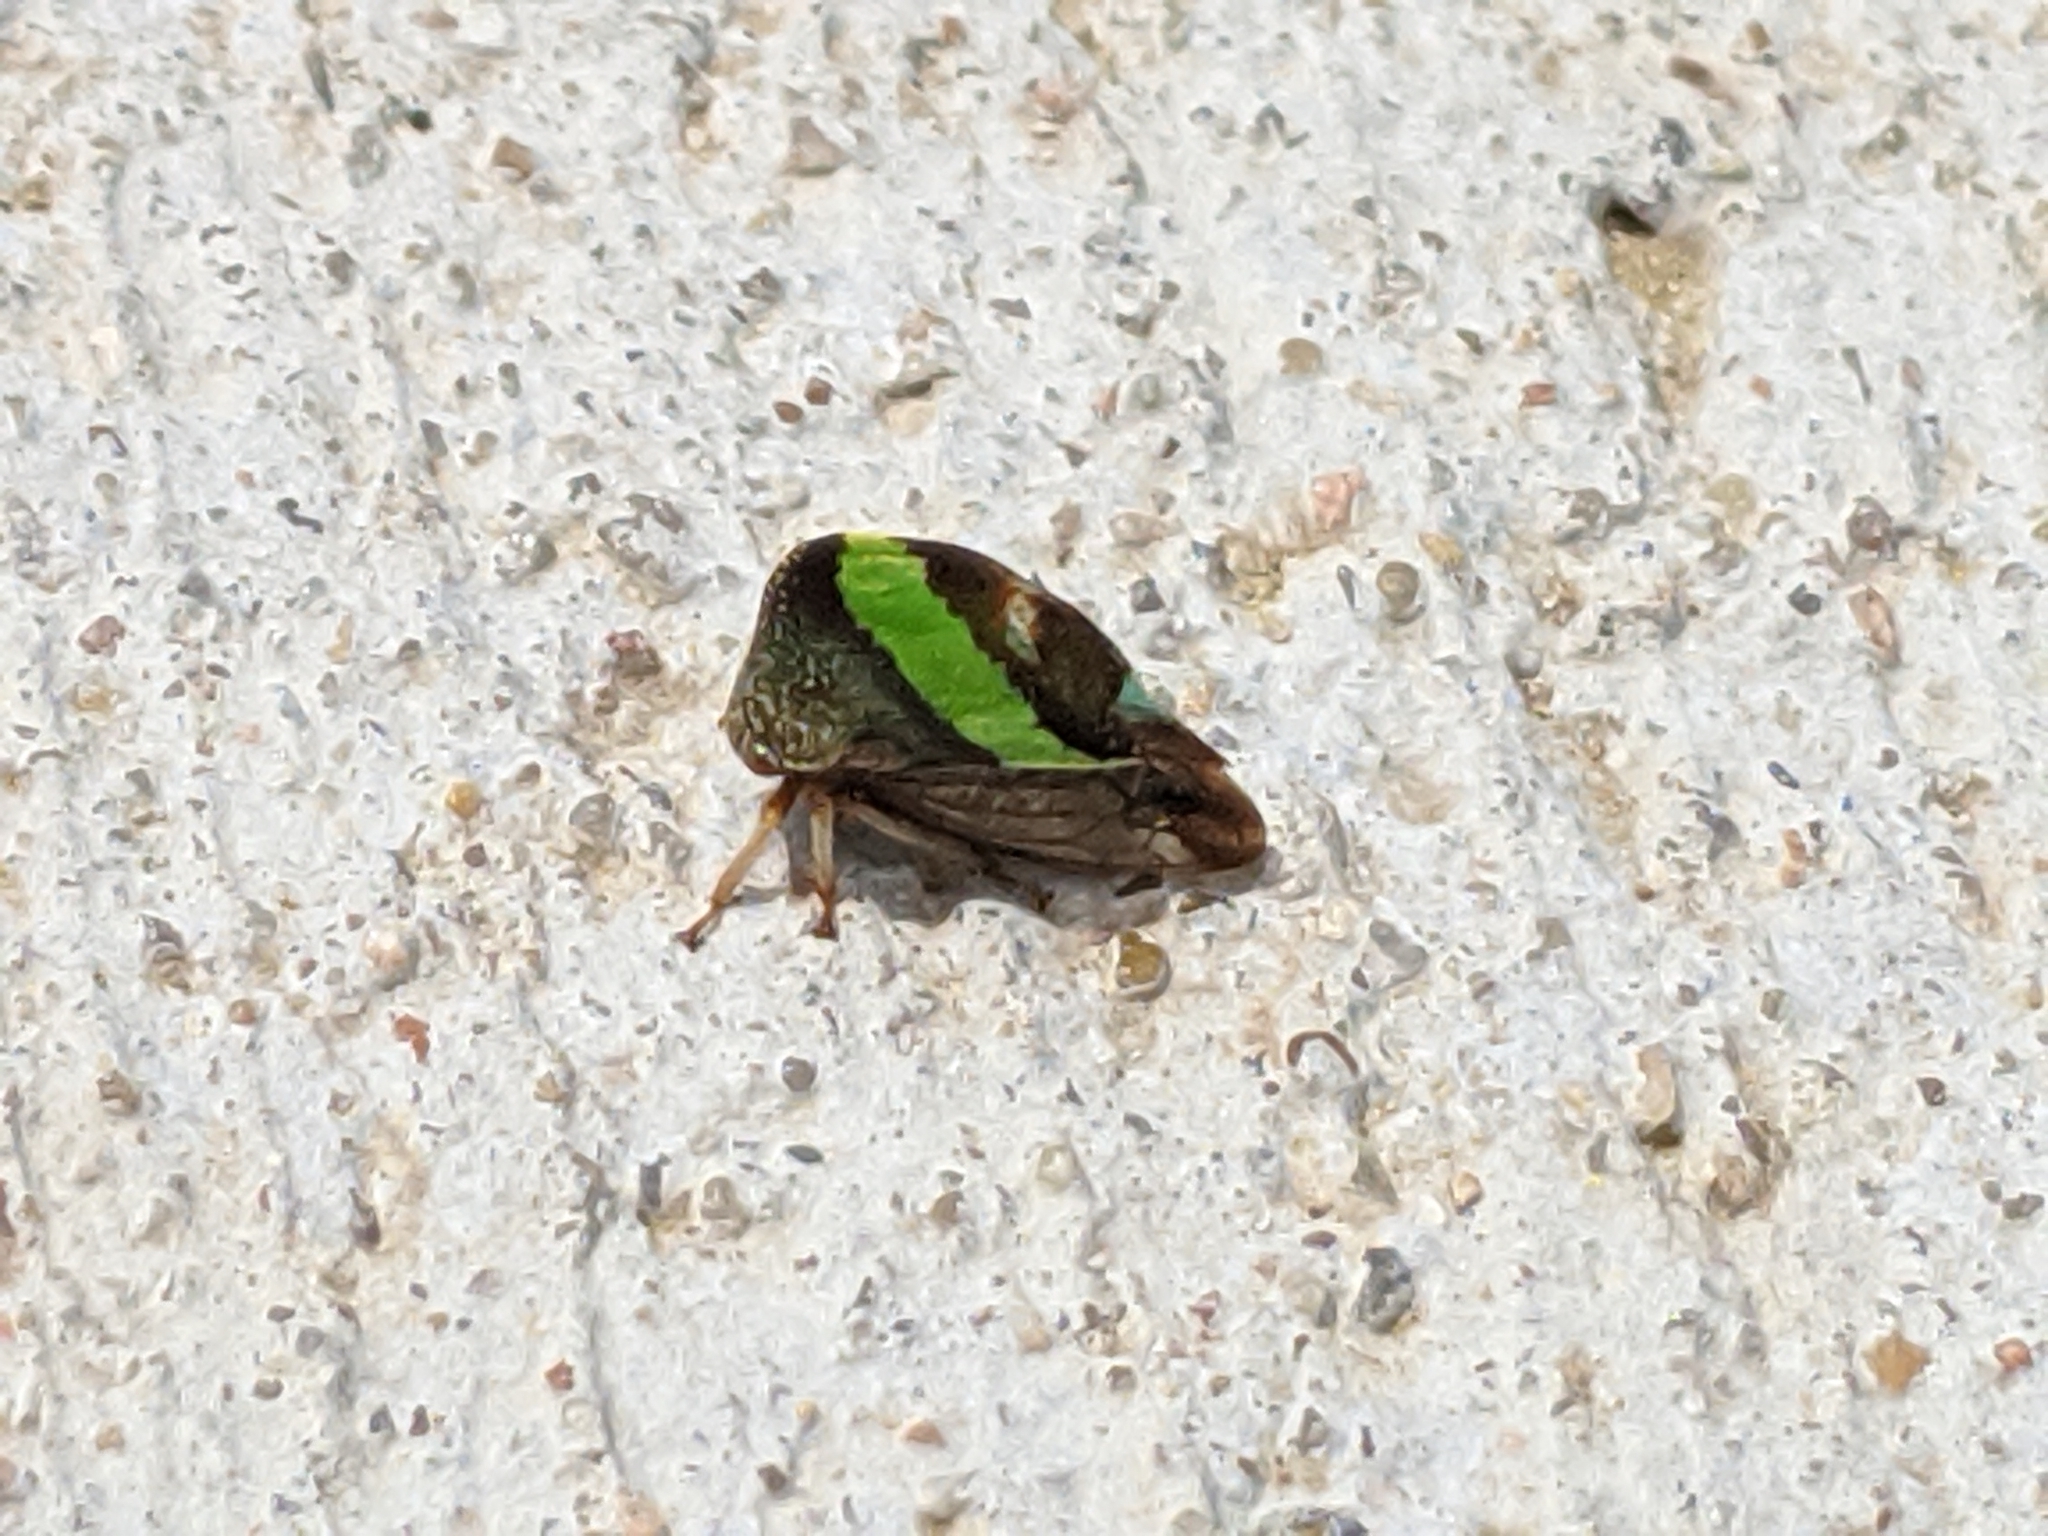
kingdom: Animalia
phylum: Arthropoda
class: Insecta
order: Hemiptera
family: Membracidae
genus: Smilia
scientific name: Smilia camelus
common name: Camel treehopper
